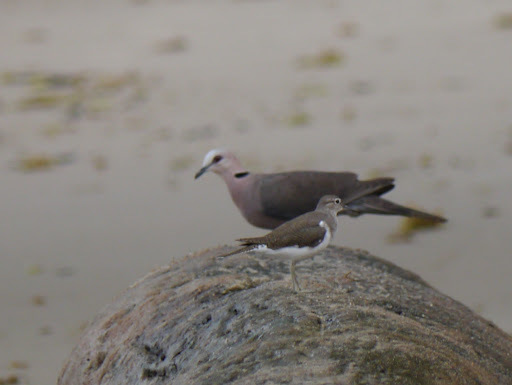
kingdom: Animalia
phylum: Chordata
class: Aves
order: Columbiformes
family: Columbidae
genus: Streptopelia
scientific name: Streptopelia semitorquata
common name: Red-eyed dove
